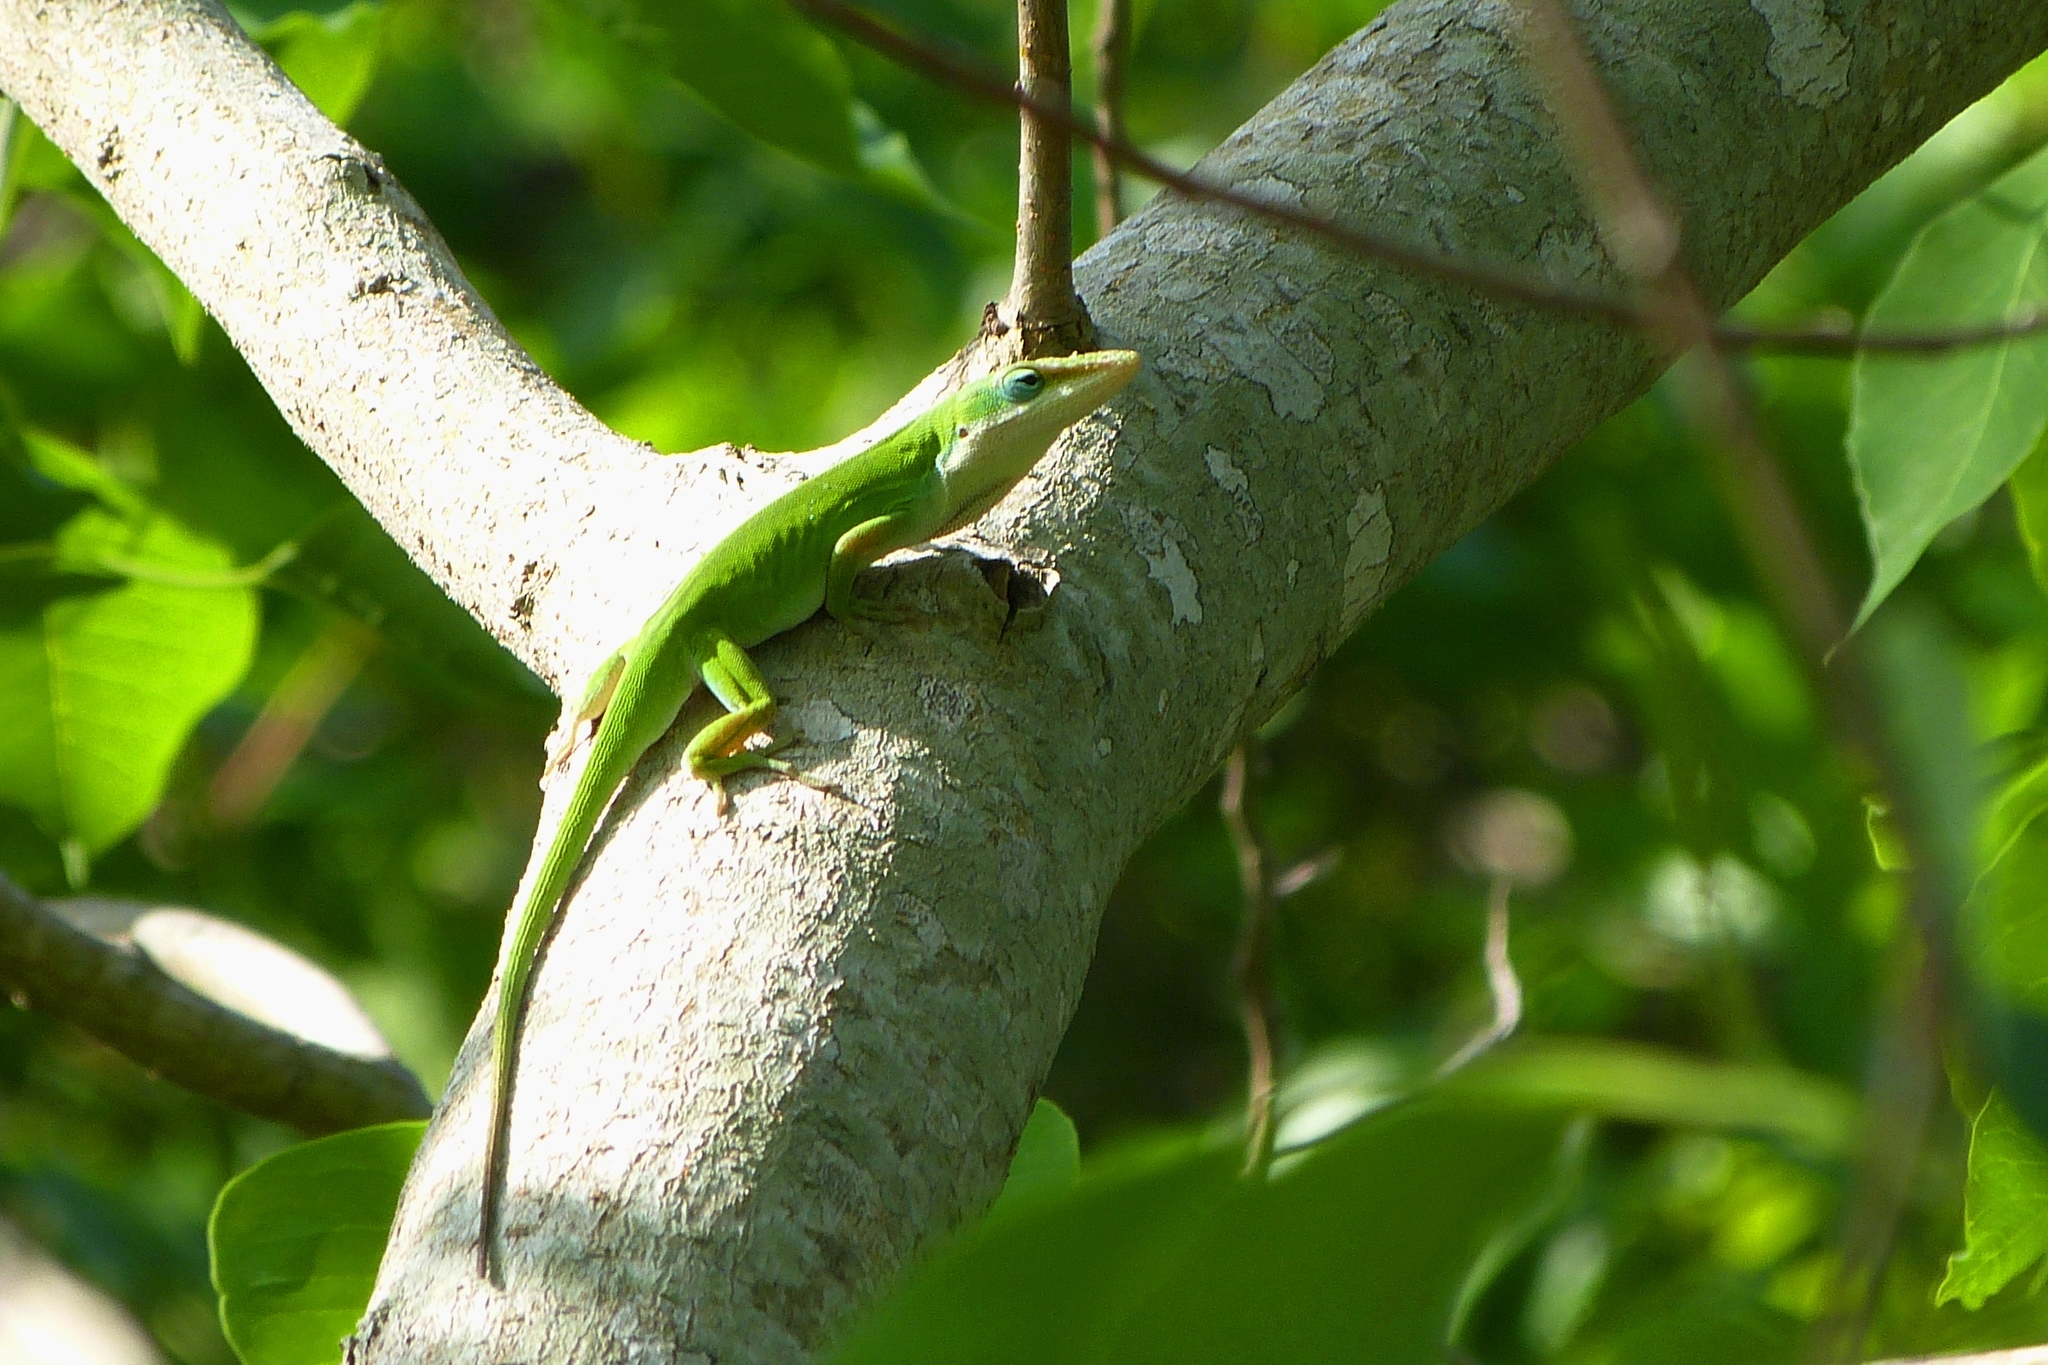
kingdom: Animalia
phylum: Chordata
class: Squamata
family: Dactyloidae
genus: Anolis
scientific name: Anolis carolinensis
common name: Green anole
